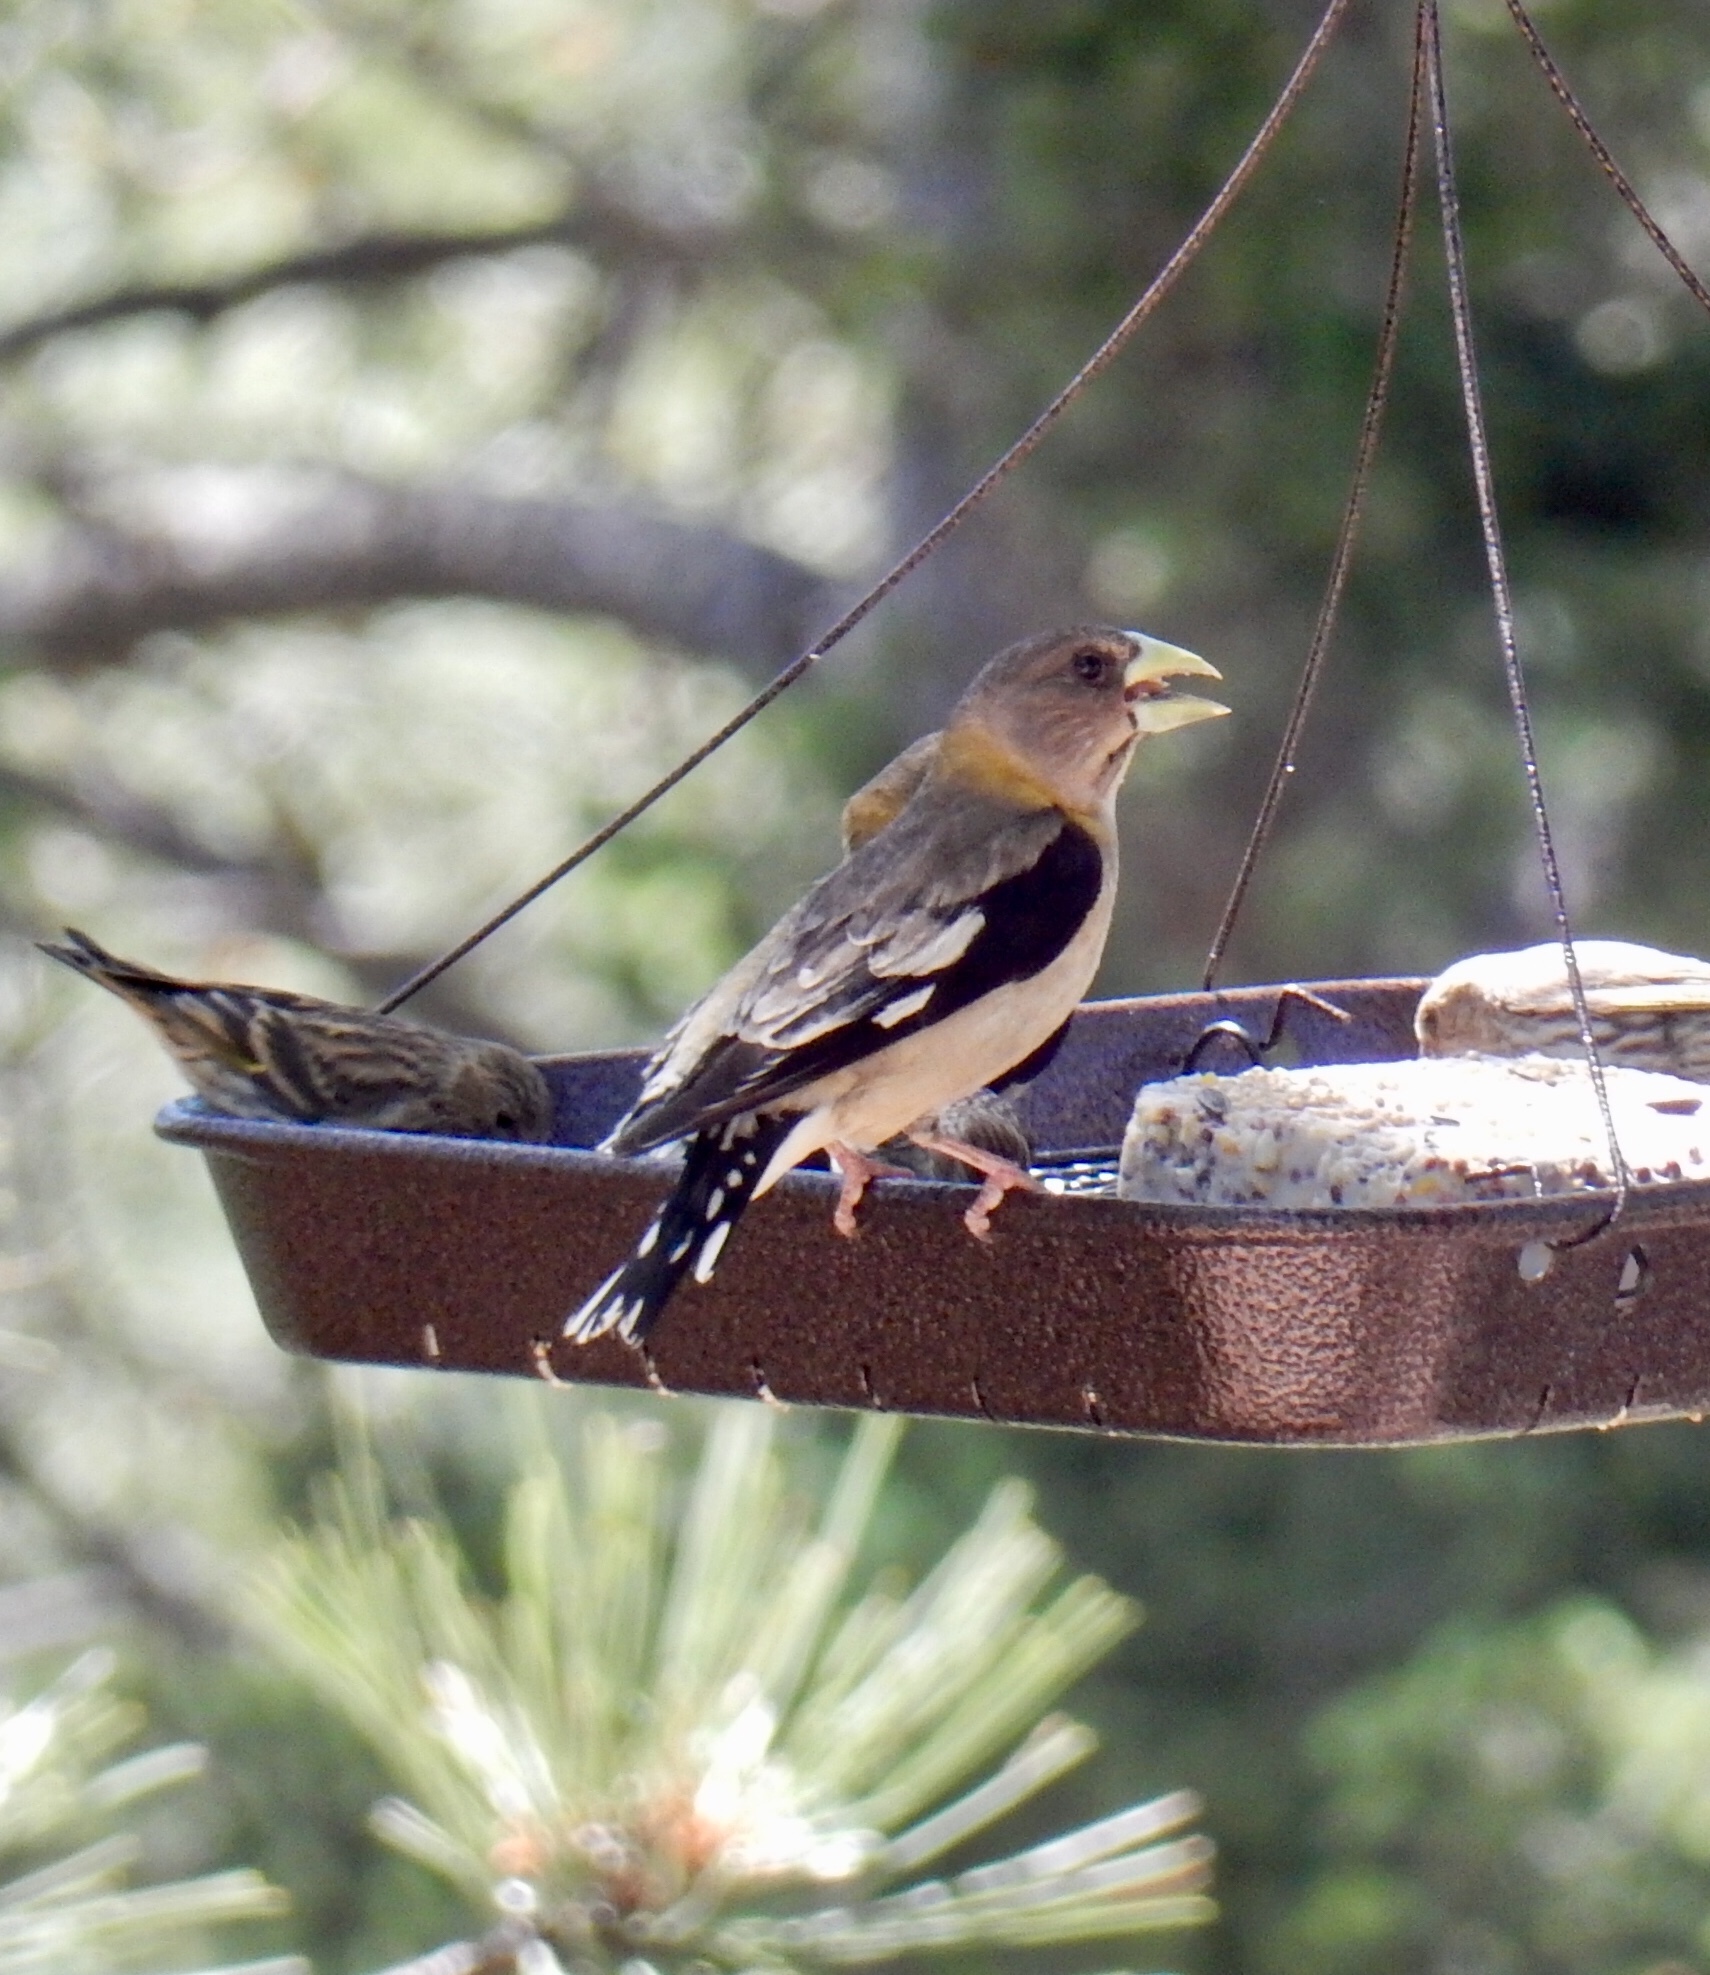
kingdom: Animalia
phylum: Chordata
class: Aves
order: Passeriformes
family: Fringillidae
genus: Hesperiphona
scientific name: Hesperiphona vespertina
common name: Evening grosbeak
